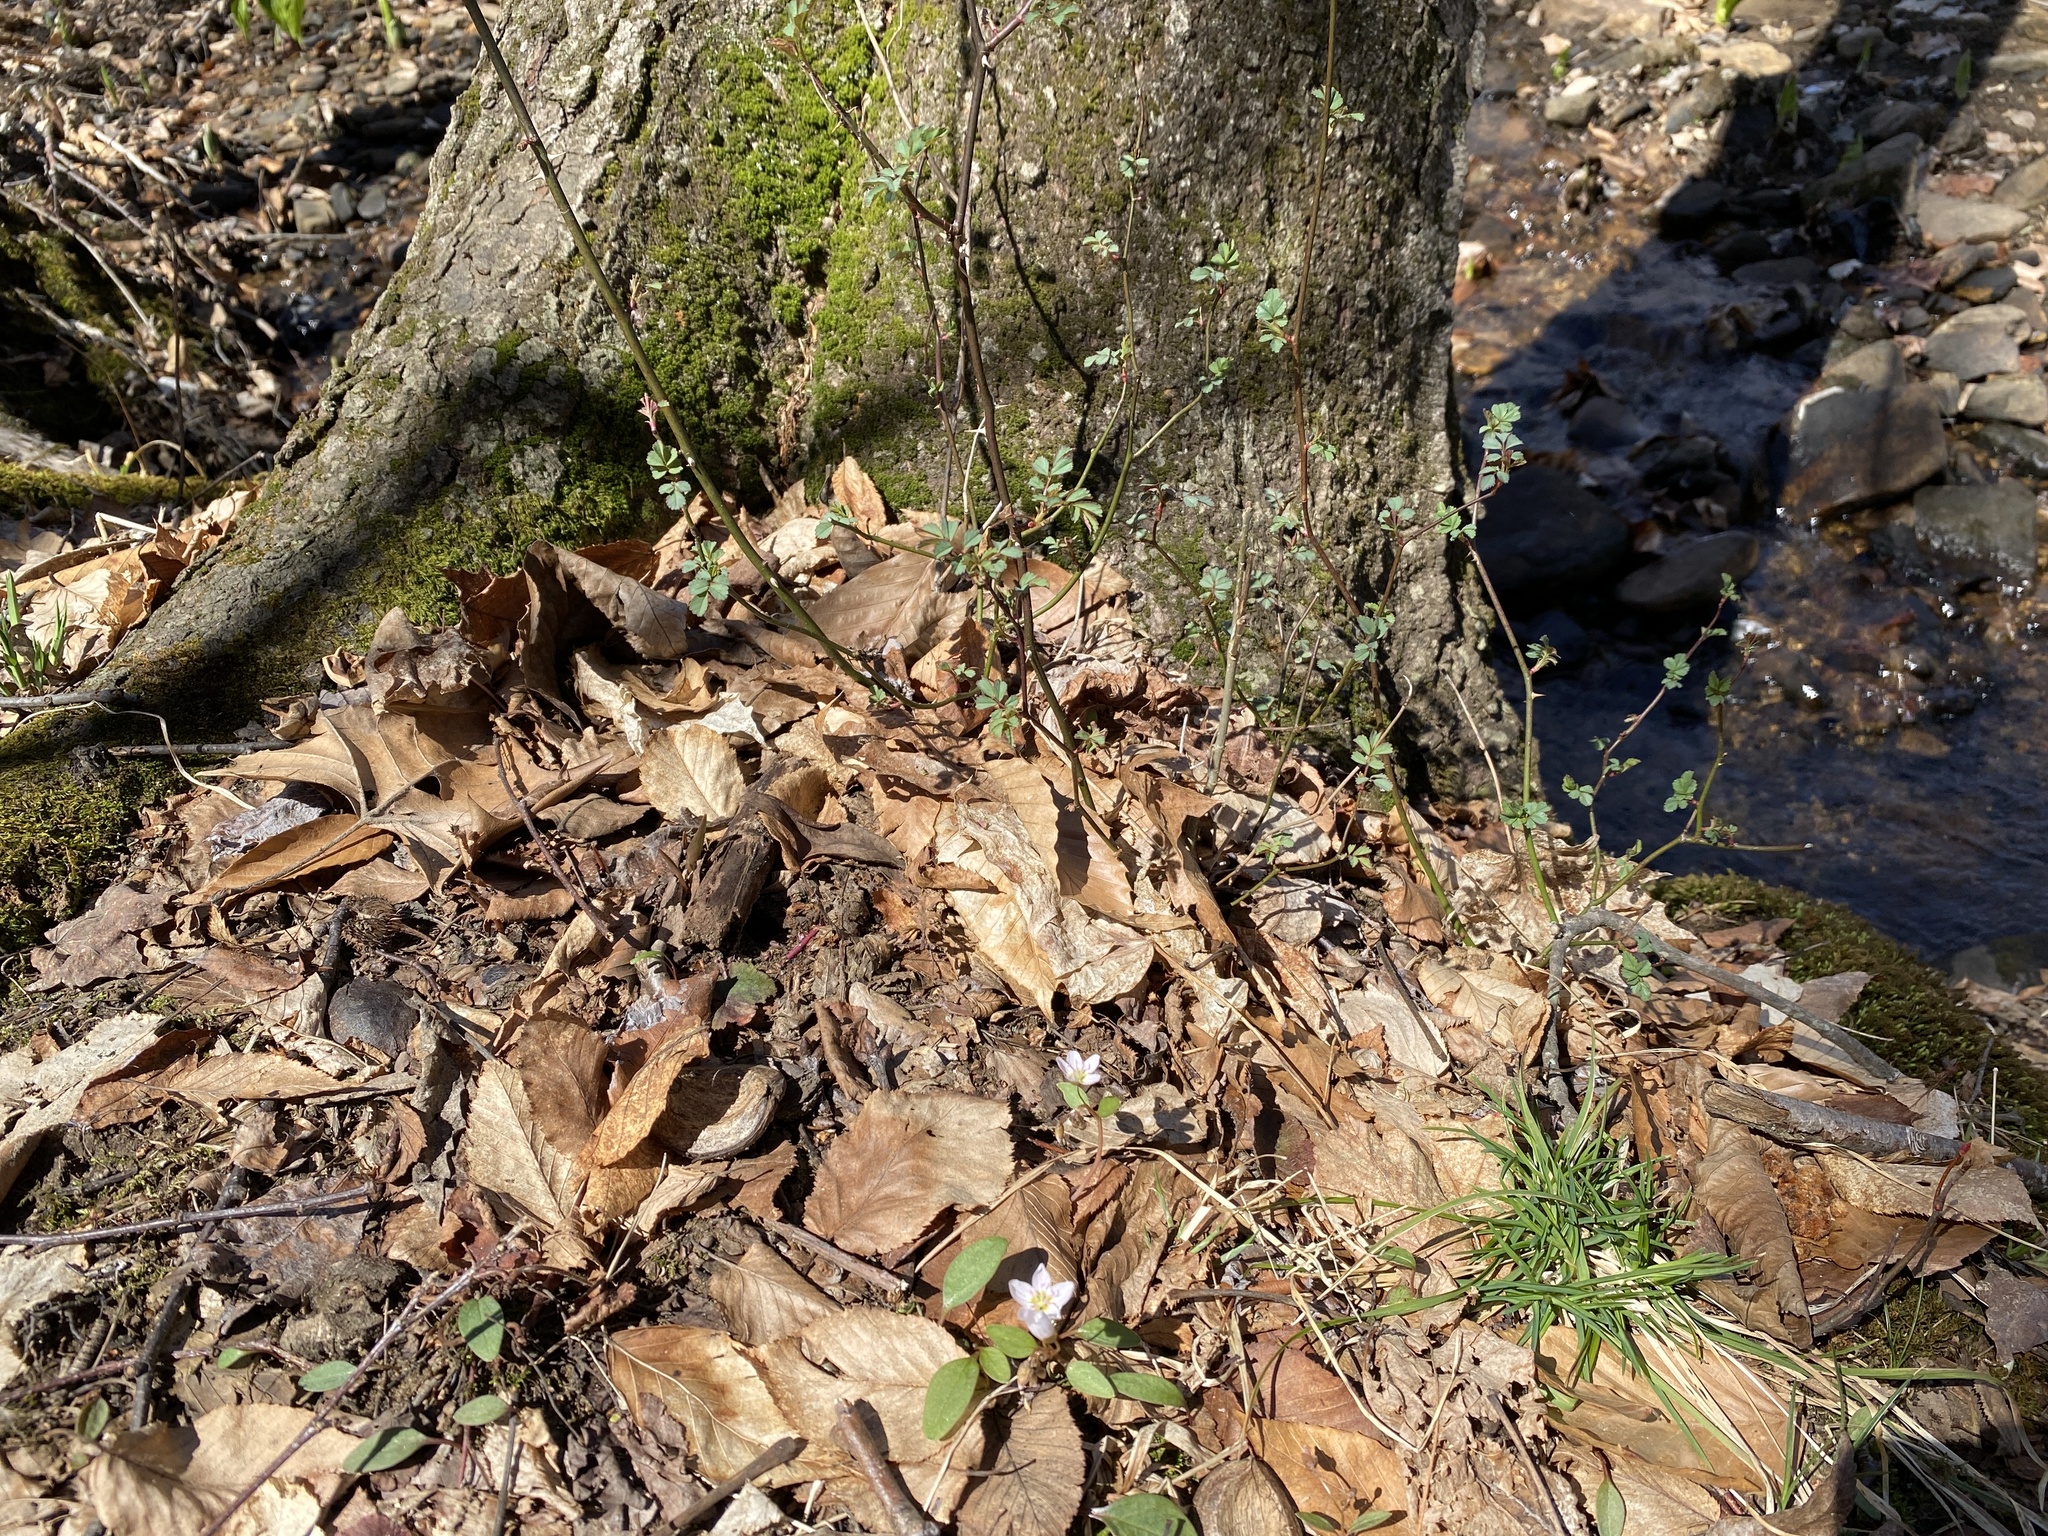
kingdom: Plantae
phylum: Tracheophyta
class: Magnoliopsida
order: Caryophyllales
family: Montiaceae
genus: Claytonia
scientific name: Claytonia caroliniana
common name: Carolina spring beauty
